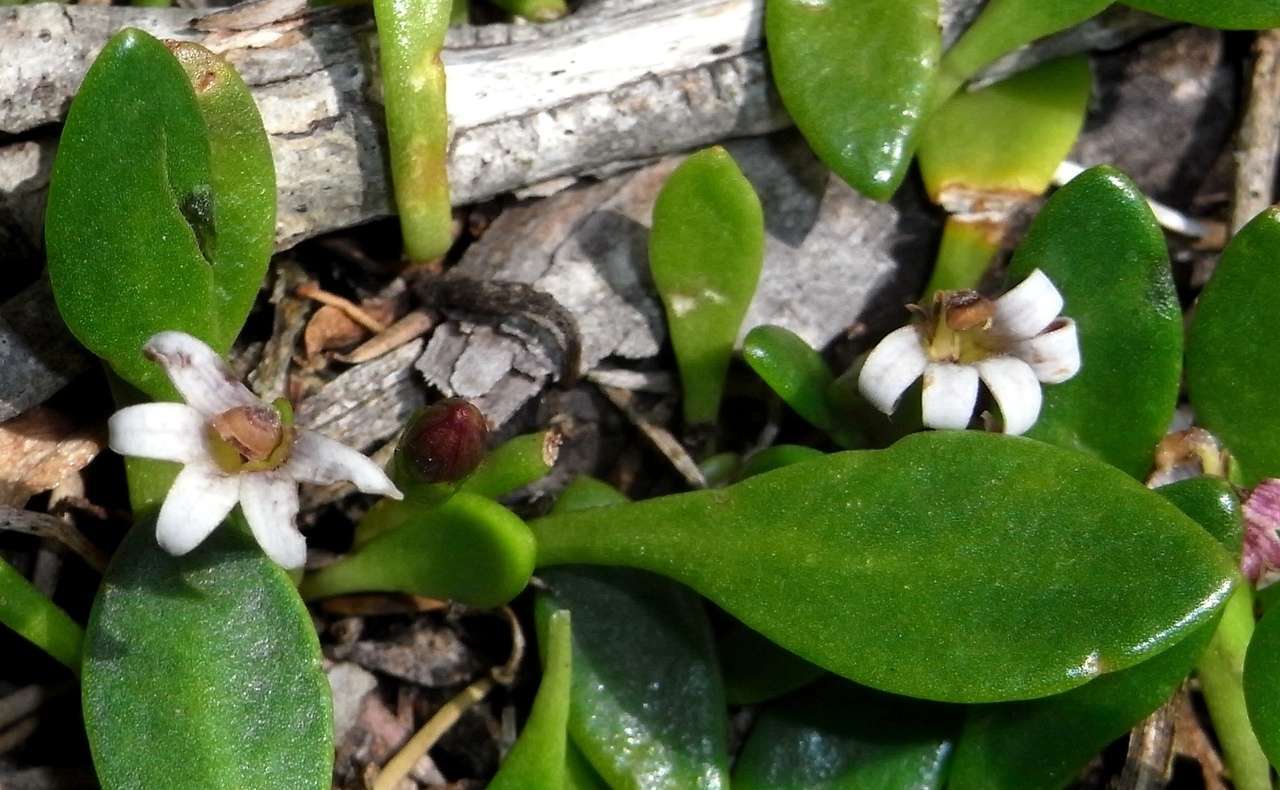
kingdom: Plantae
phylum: Tracheophyta
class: Magnoliopsida
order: Asterales
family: Goodeniaceae
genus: Goodenia
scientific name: Goodenia radicans
